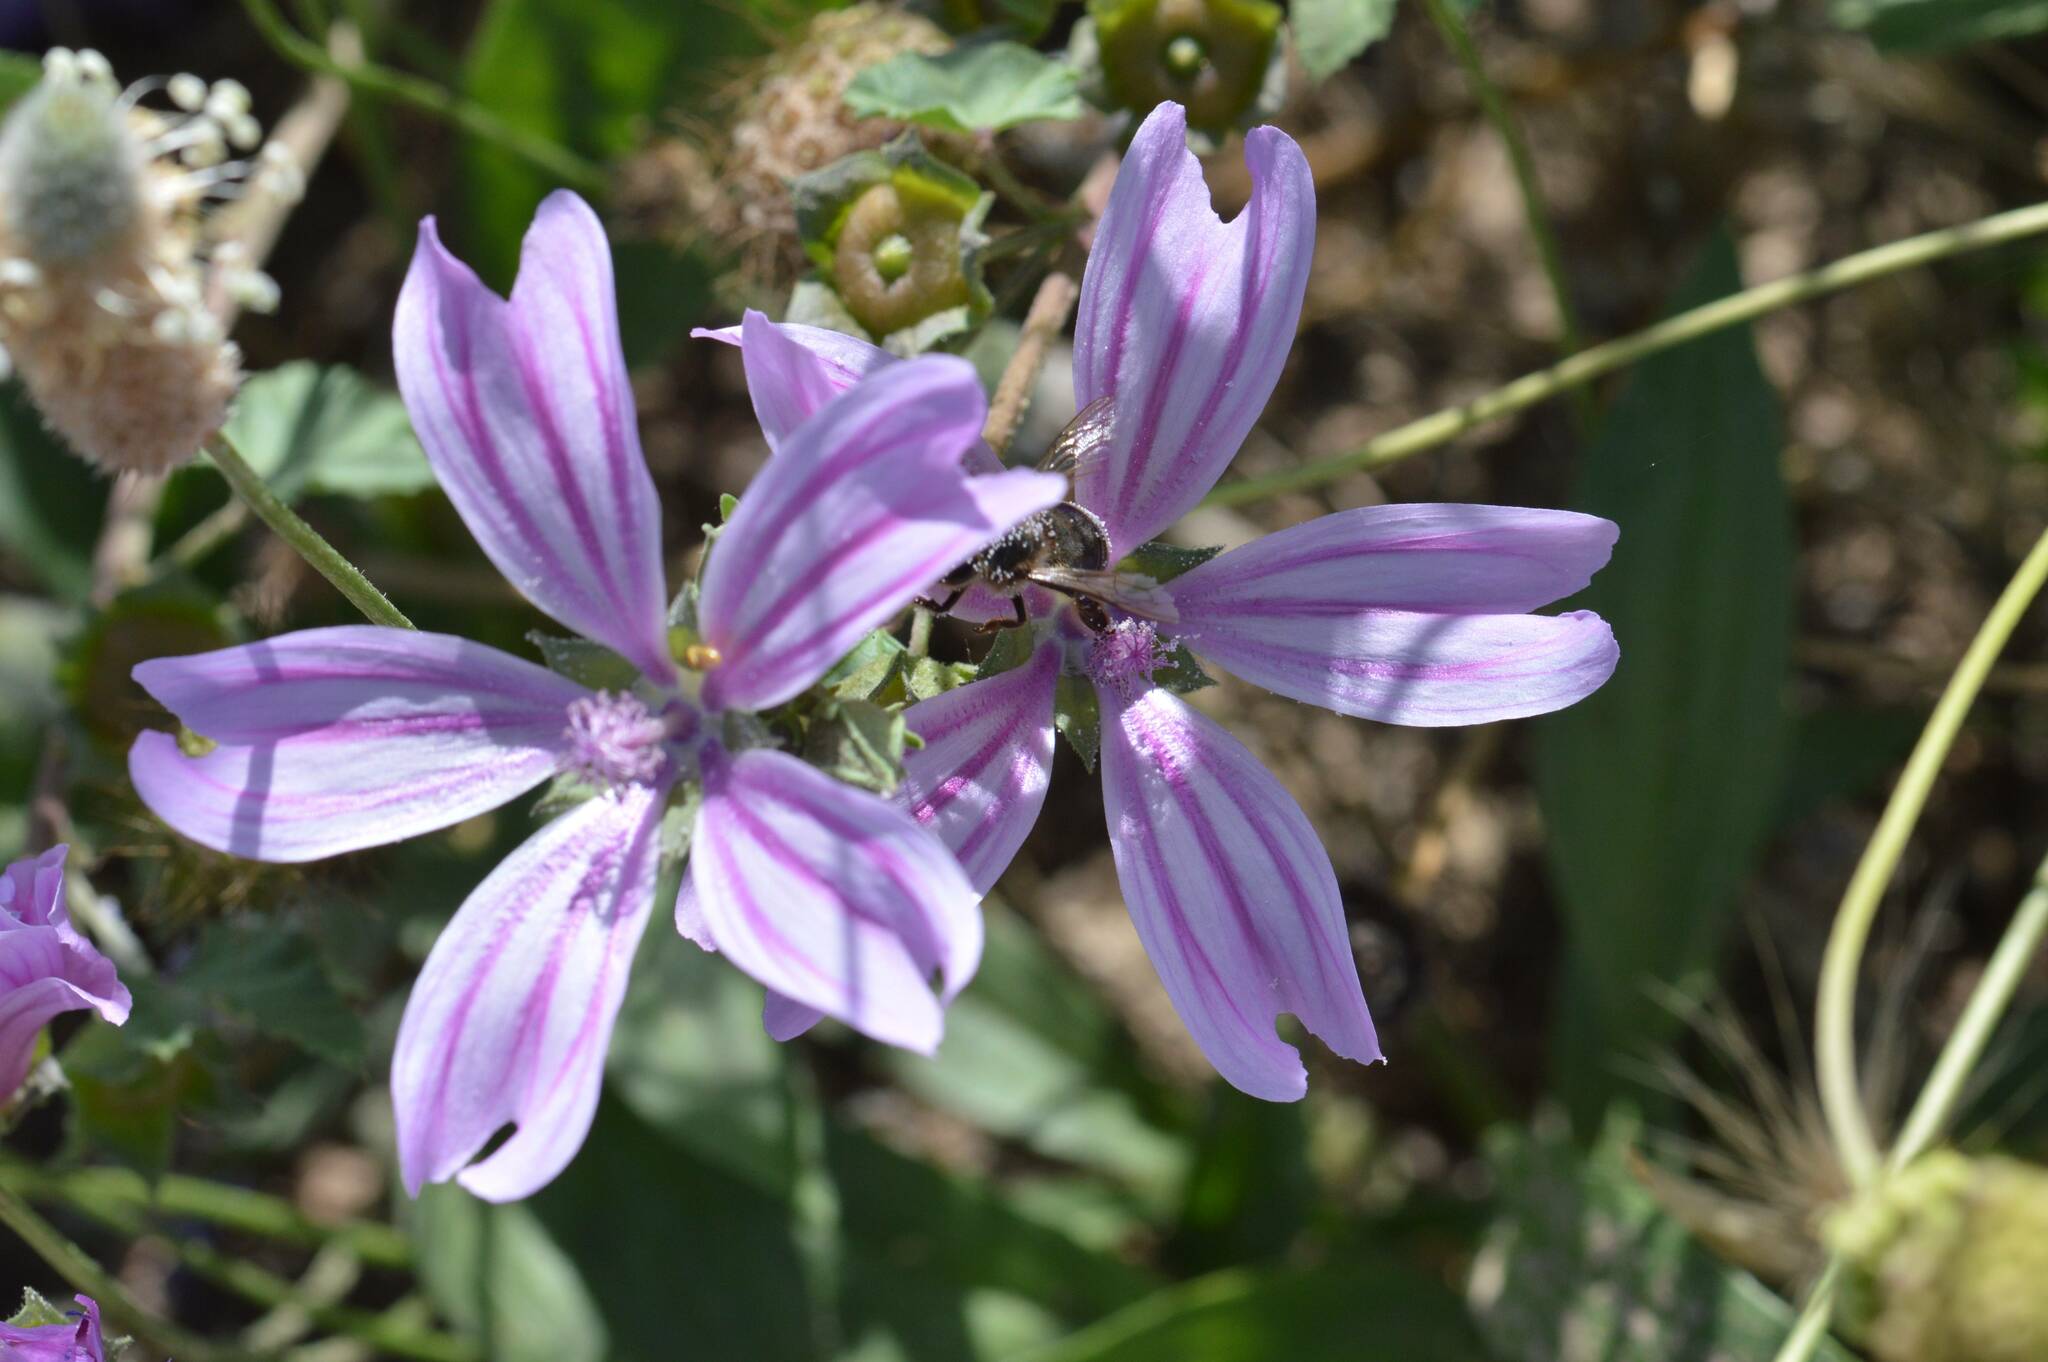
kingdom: Plantae
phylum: Tracheophyta
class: Magnoliopsida
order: Malvales
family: Malvaceae
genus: Malva
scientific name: Malva sylvestris
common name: Common mallow
